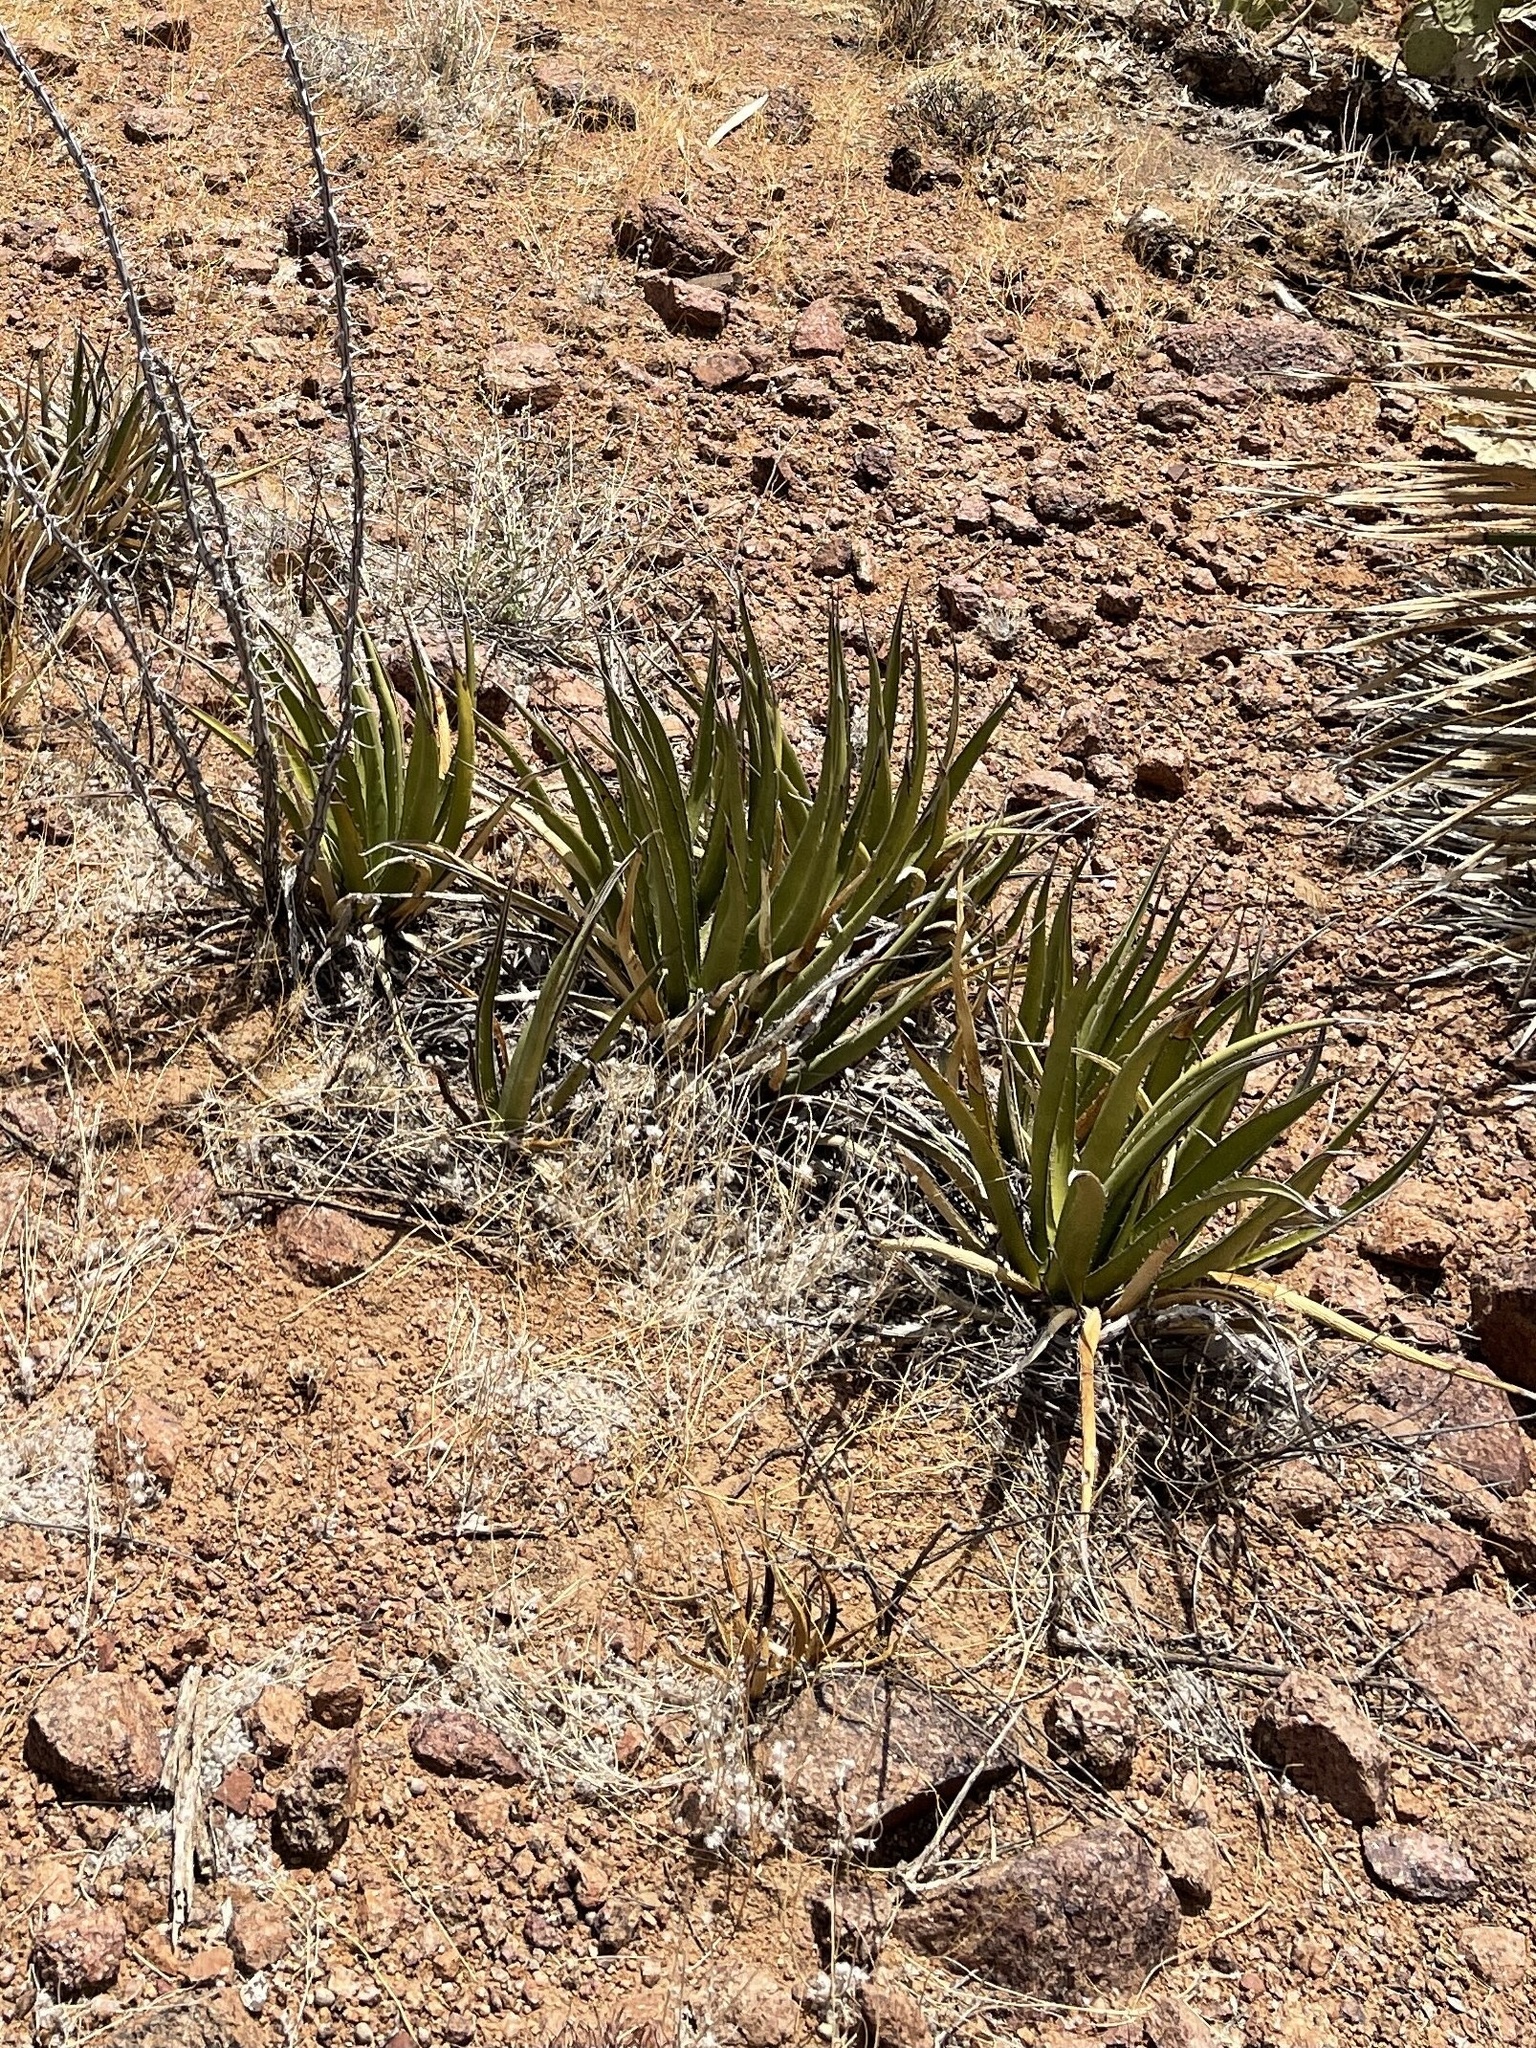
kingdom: Plantae
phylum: Tracheophyta
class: Liliopsida
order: Asparagales
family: Asparagaceae
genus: Agave
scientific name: Agave lechuguilla
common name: Lecheguilla agave
